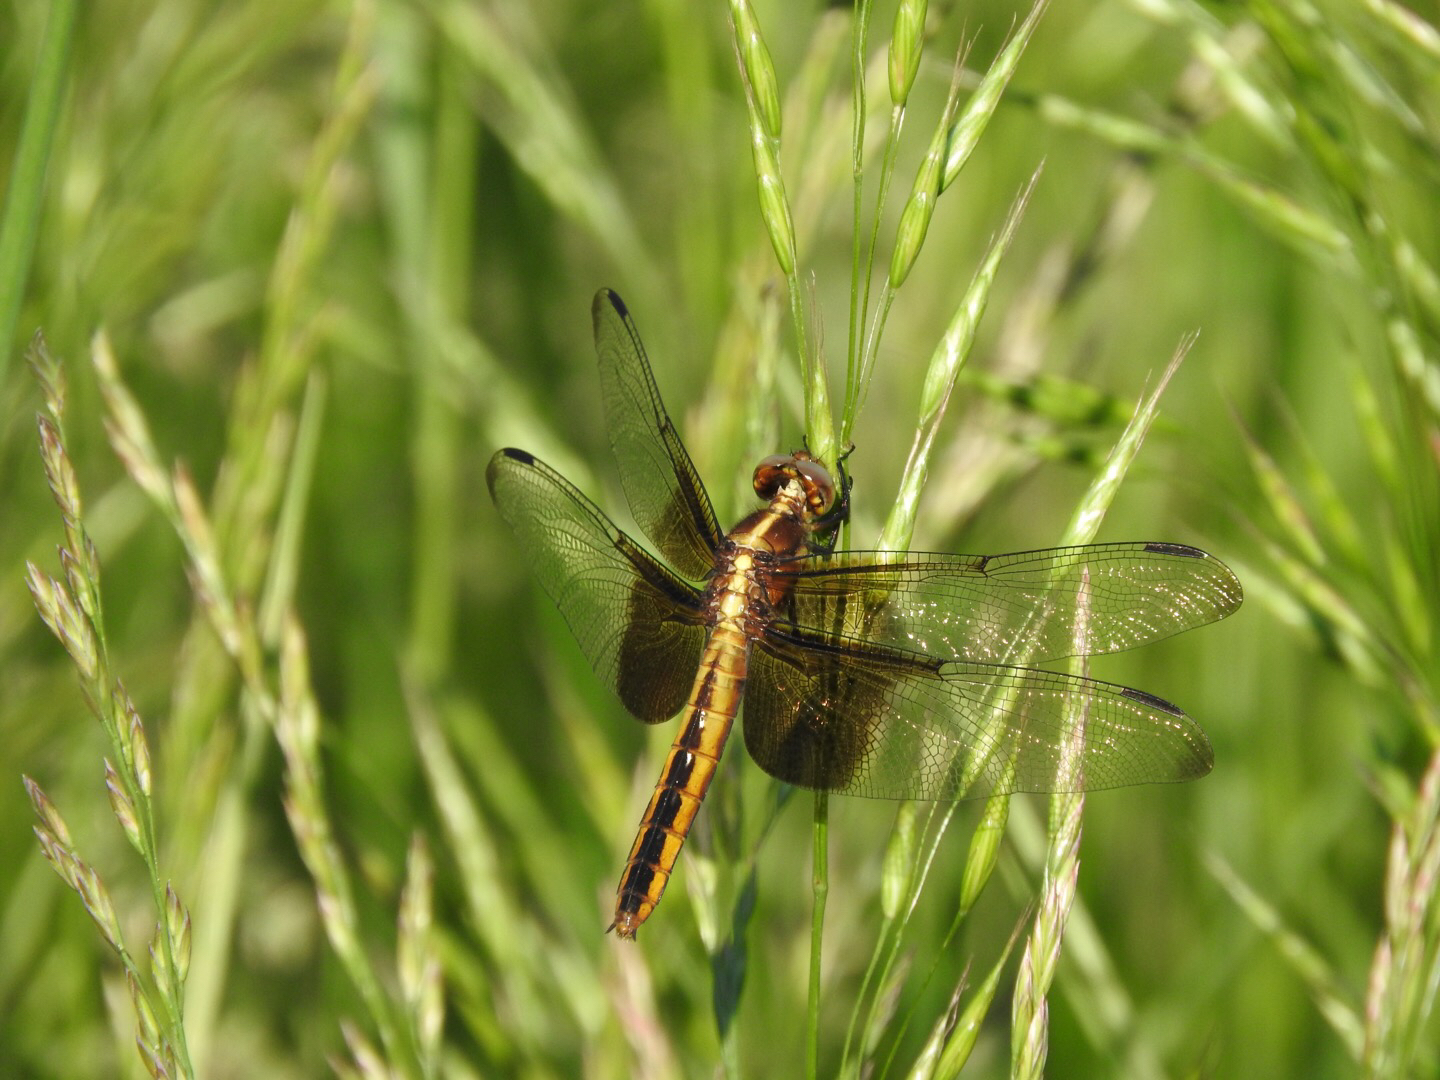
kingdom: Animalia
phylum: Arthropoda
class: Insecta
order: Odonata
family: Libellulidae
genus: Libellula
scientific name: Libellula luctuosa
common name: Widow skimmer
